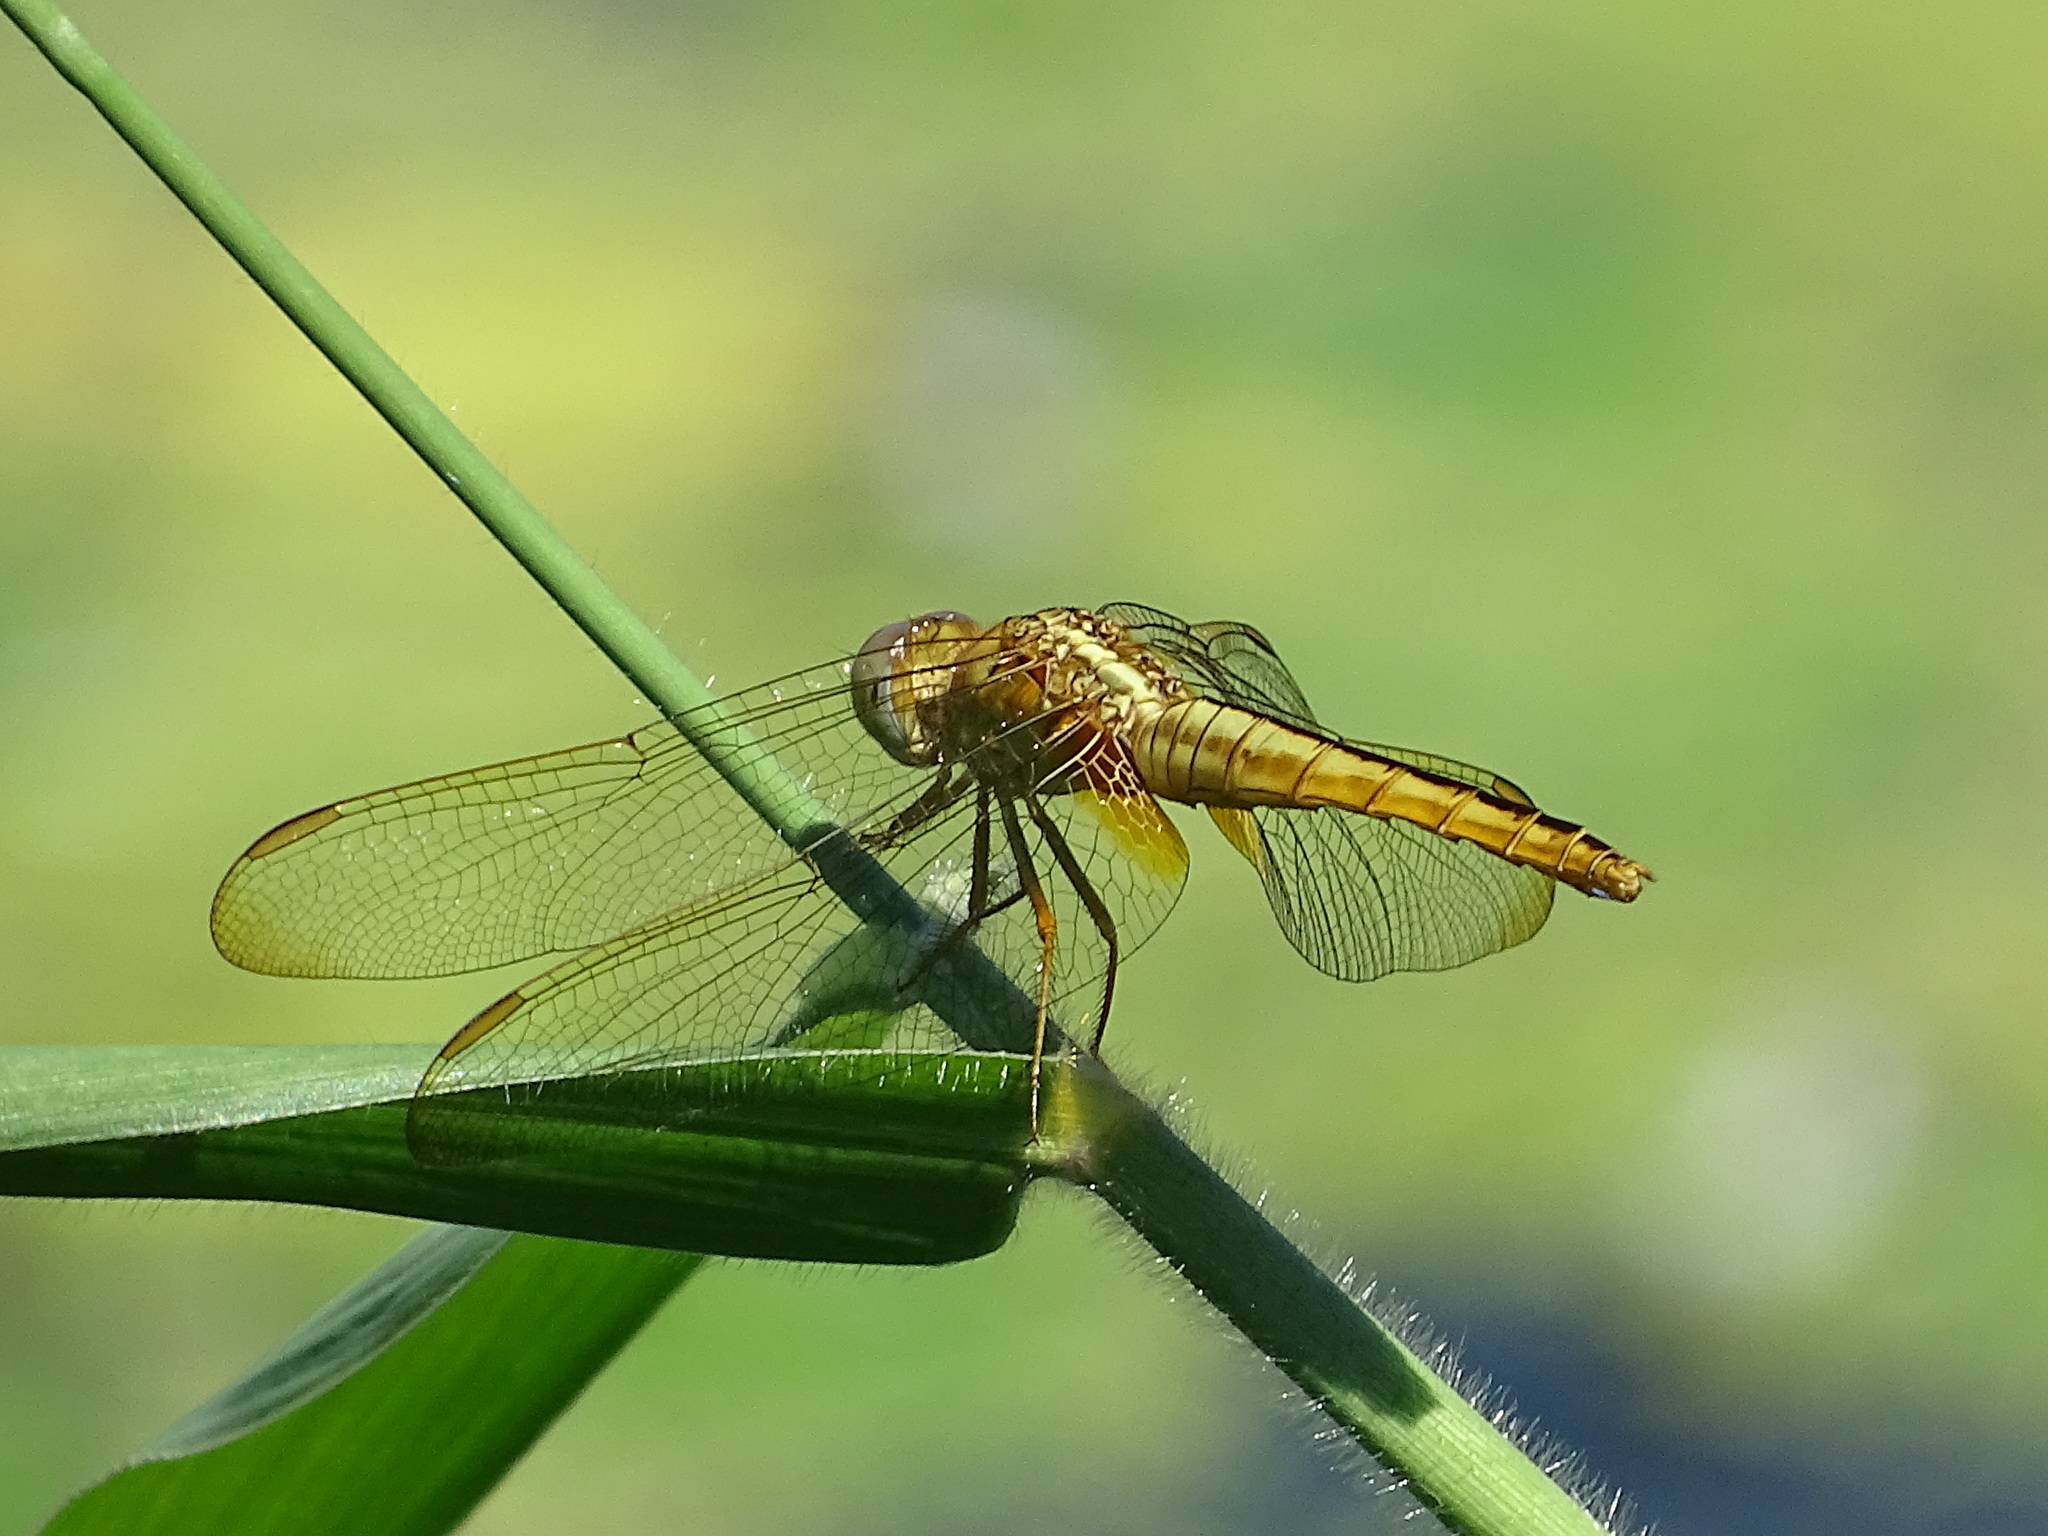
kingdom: Animalia
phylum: Arthropoda
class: Insecta
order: Odonata
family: Libellulidae
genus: Crocothemis
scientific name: Crocothemis servilia
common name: Scarlet skimmer
